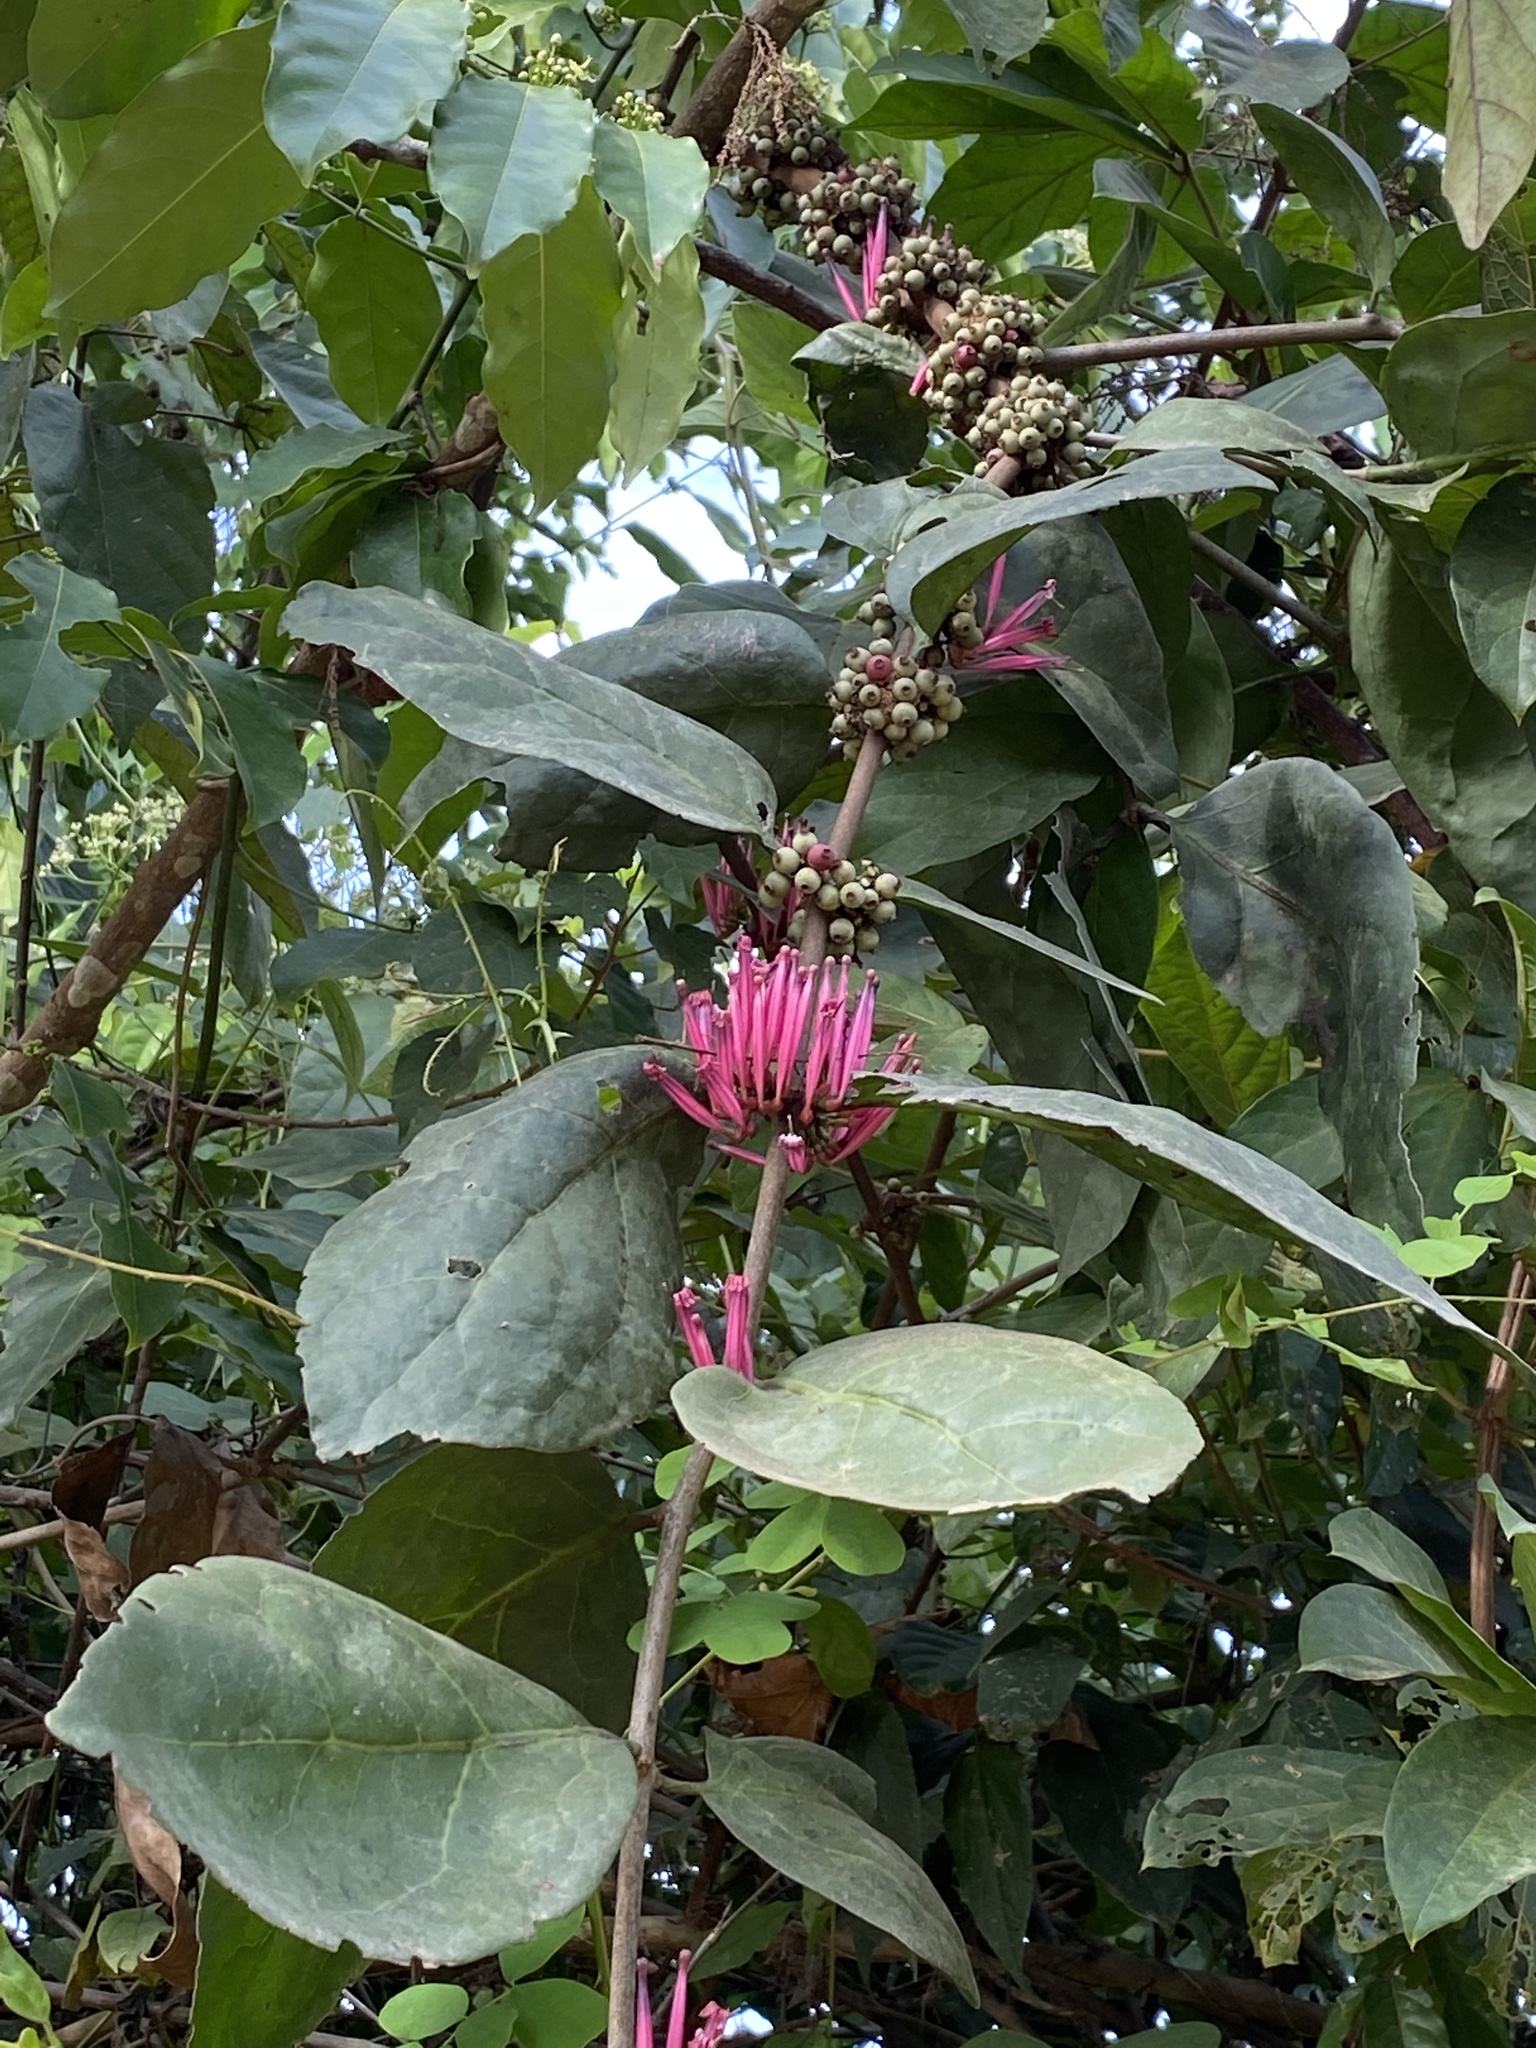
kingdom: Plantae
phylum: Tracheophyta
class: Magnoliopsida
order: Santalales
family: Loranthaceae
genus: Tapinanthus
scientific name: Tapinanthus bangwensis
